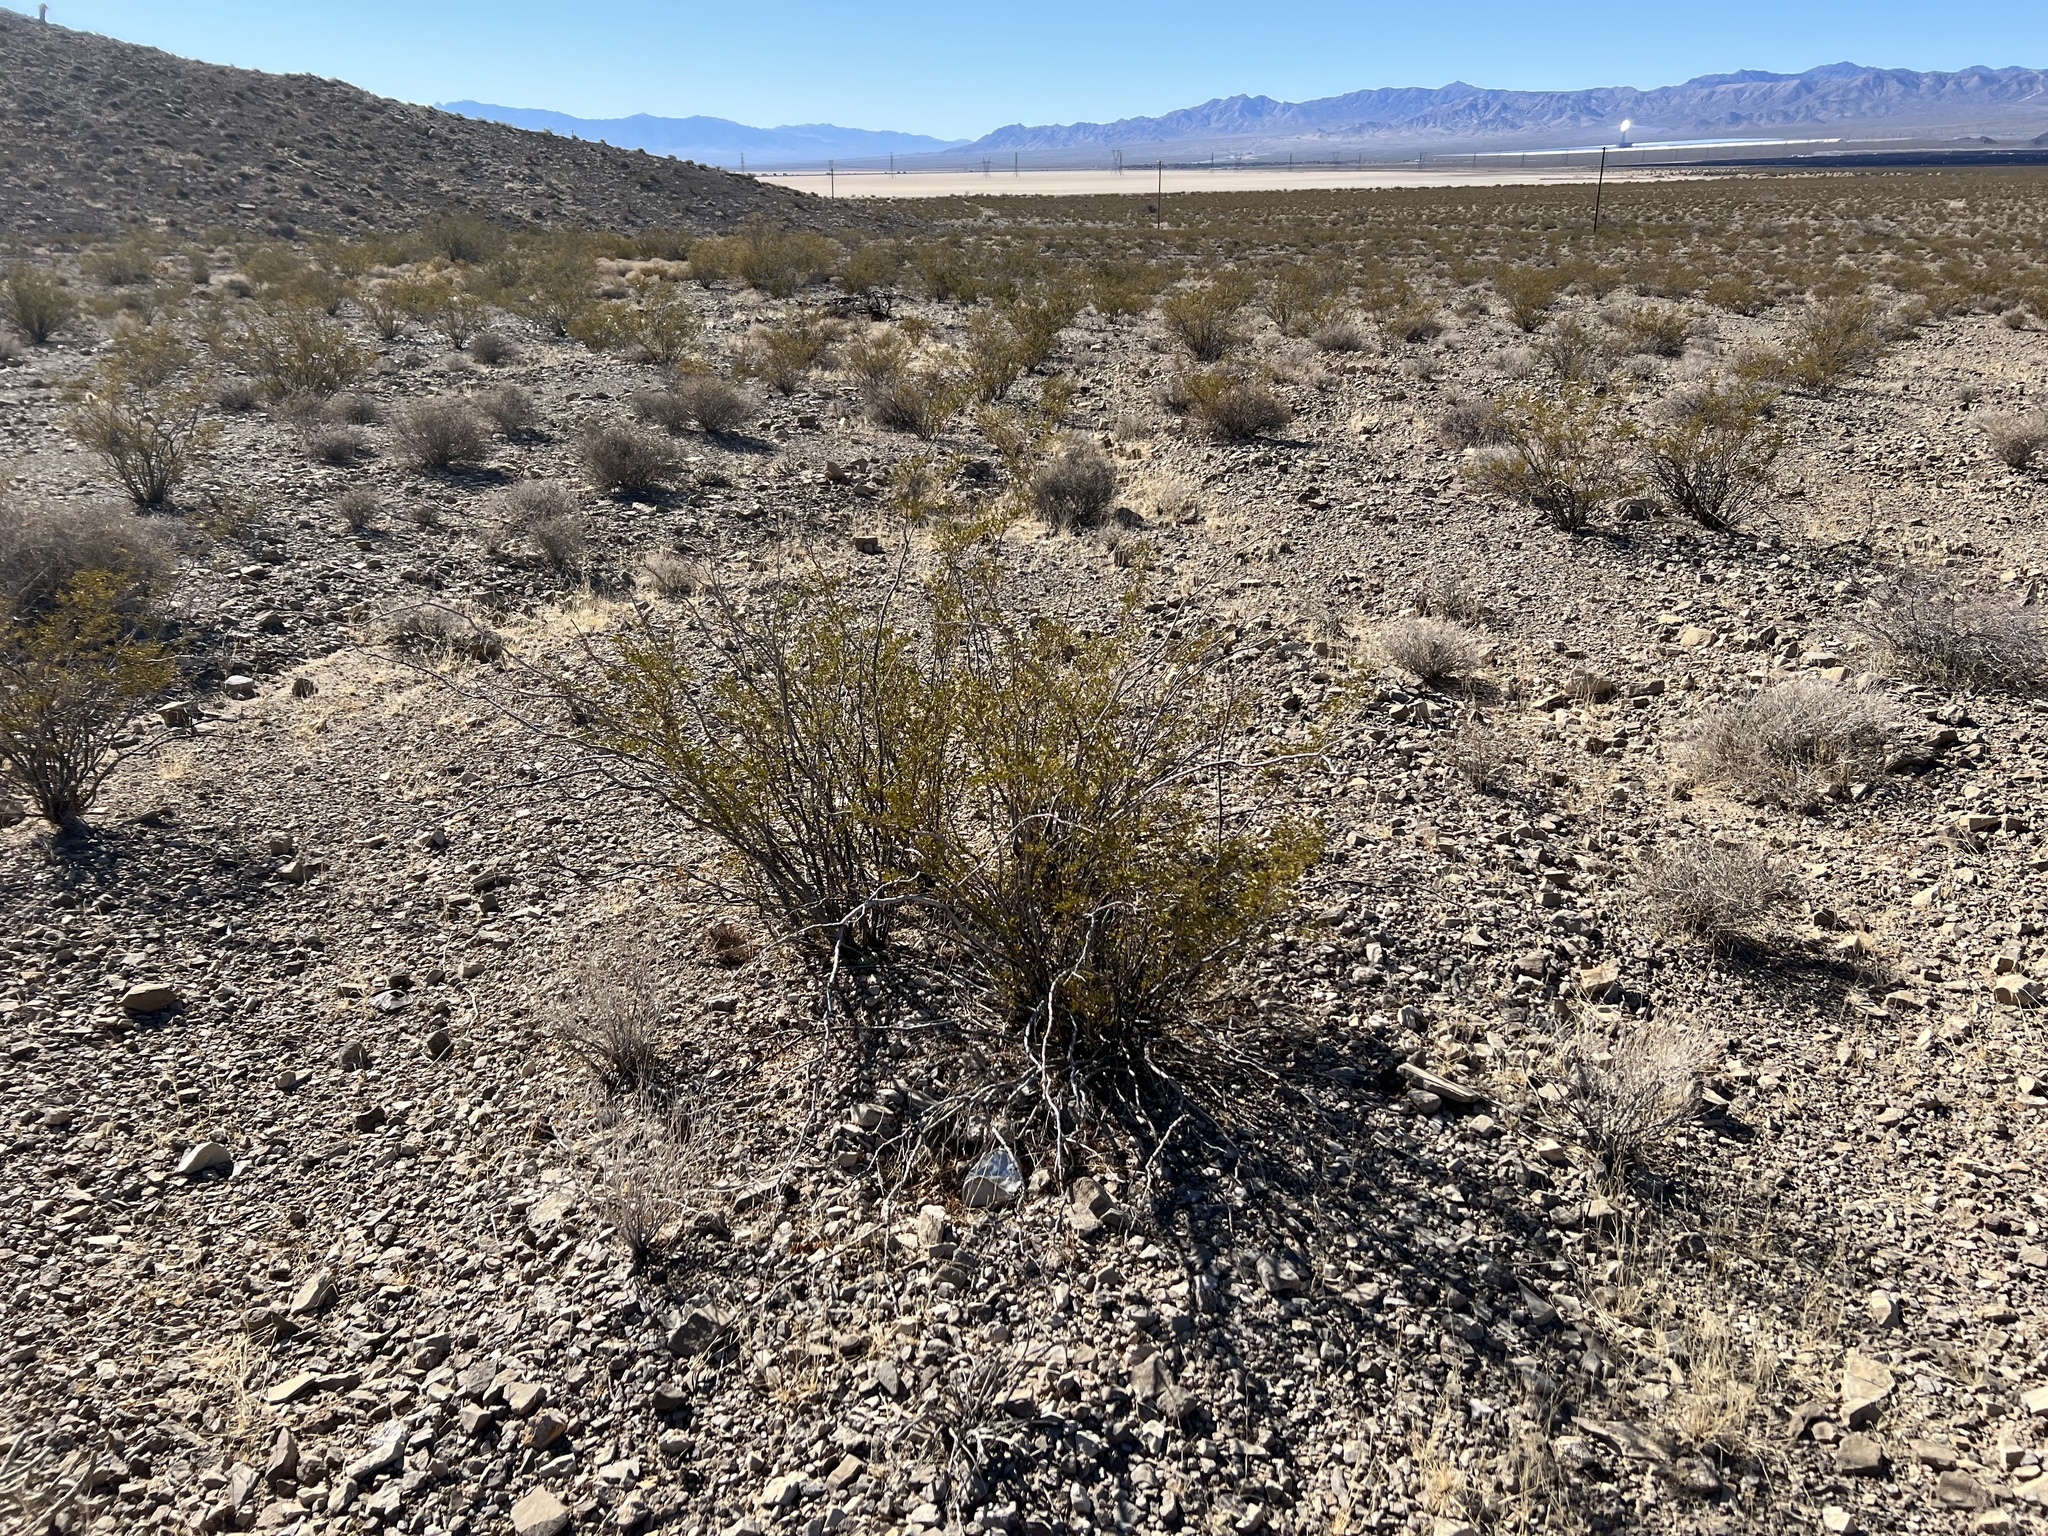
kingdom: Plantae
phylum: Tracheophyta
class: Magnoliopsida
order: Zygophyllales
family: Zygophyllaceae
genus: Larrea
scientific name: Larrea tridentata
